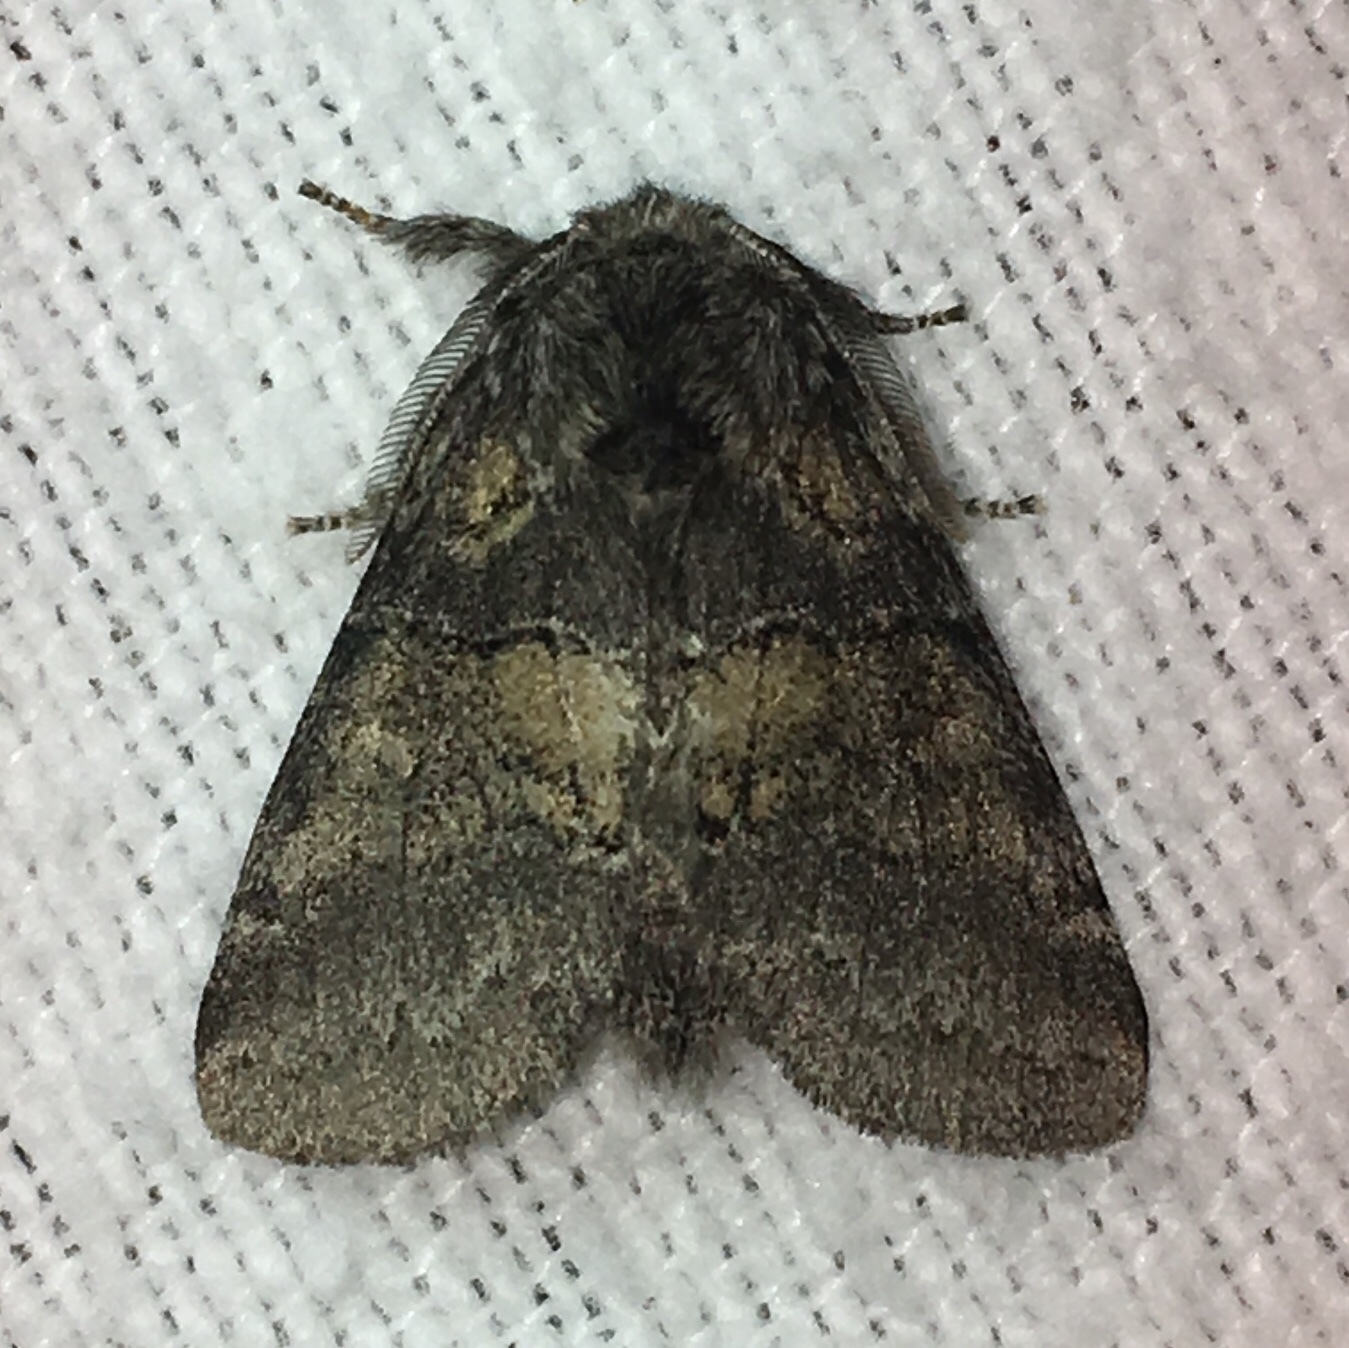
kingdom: Animalia
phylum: Arthropoda
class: Insecta
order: Lepidoptera
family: Notodontidae
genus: Gluphisia
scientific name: Gluphisia septentrionis
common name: Common gluphisia
